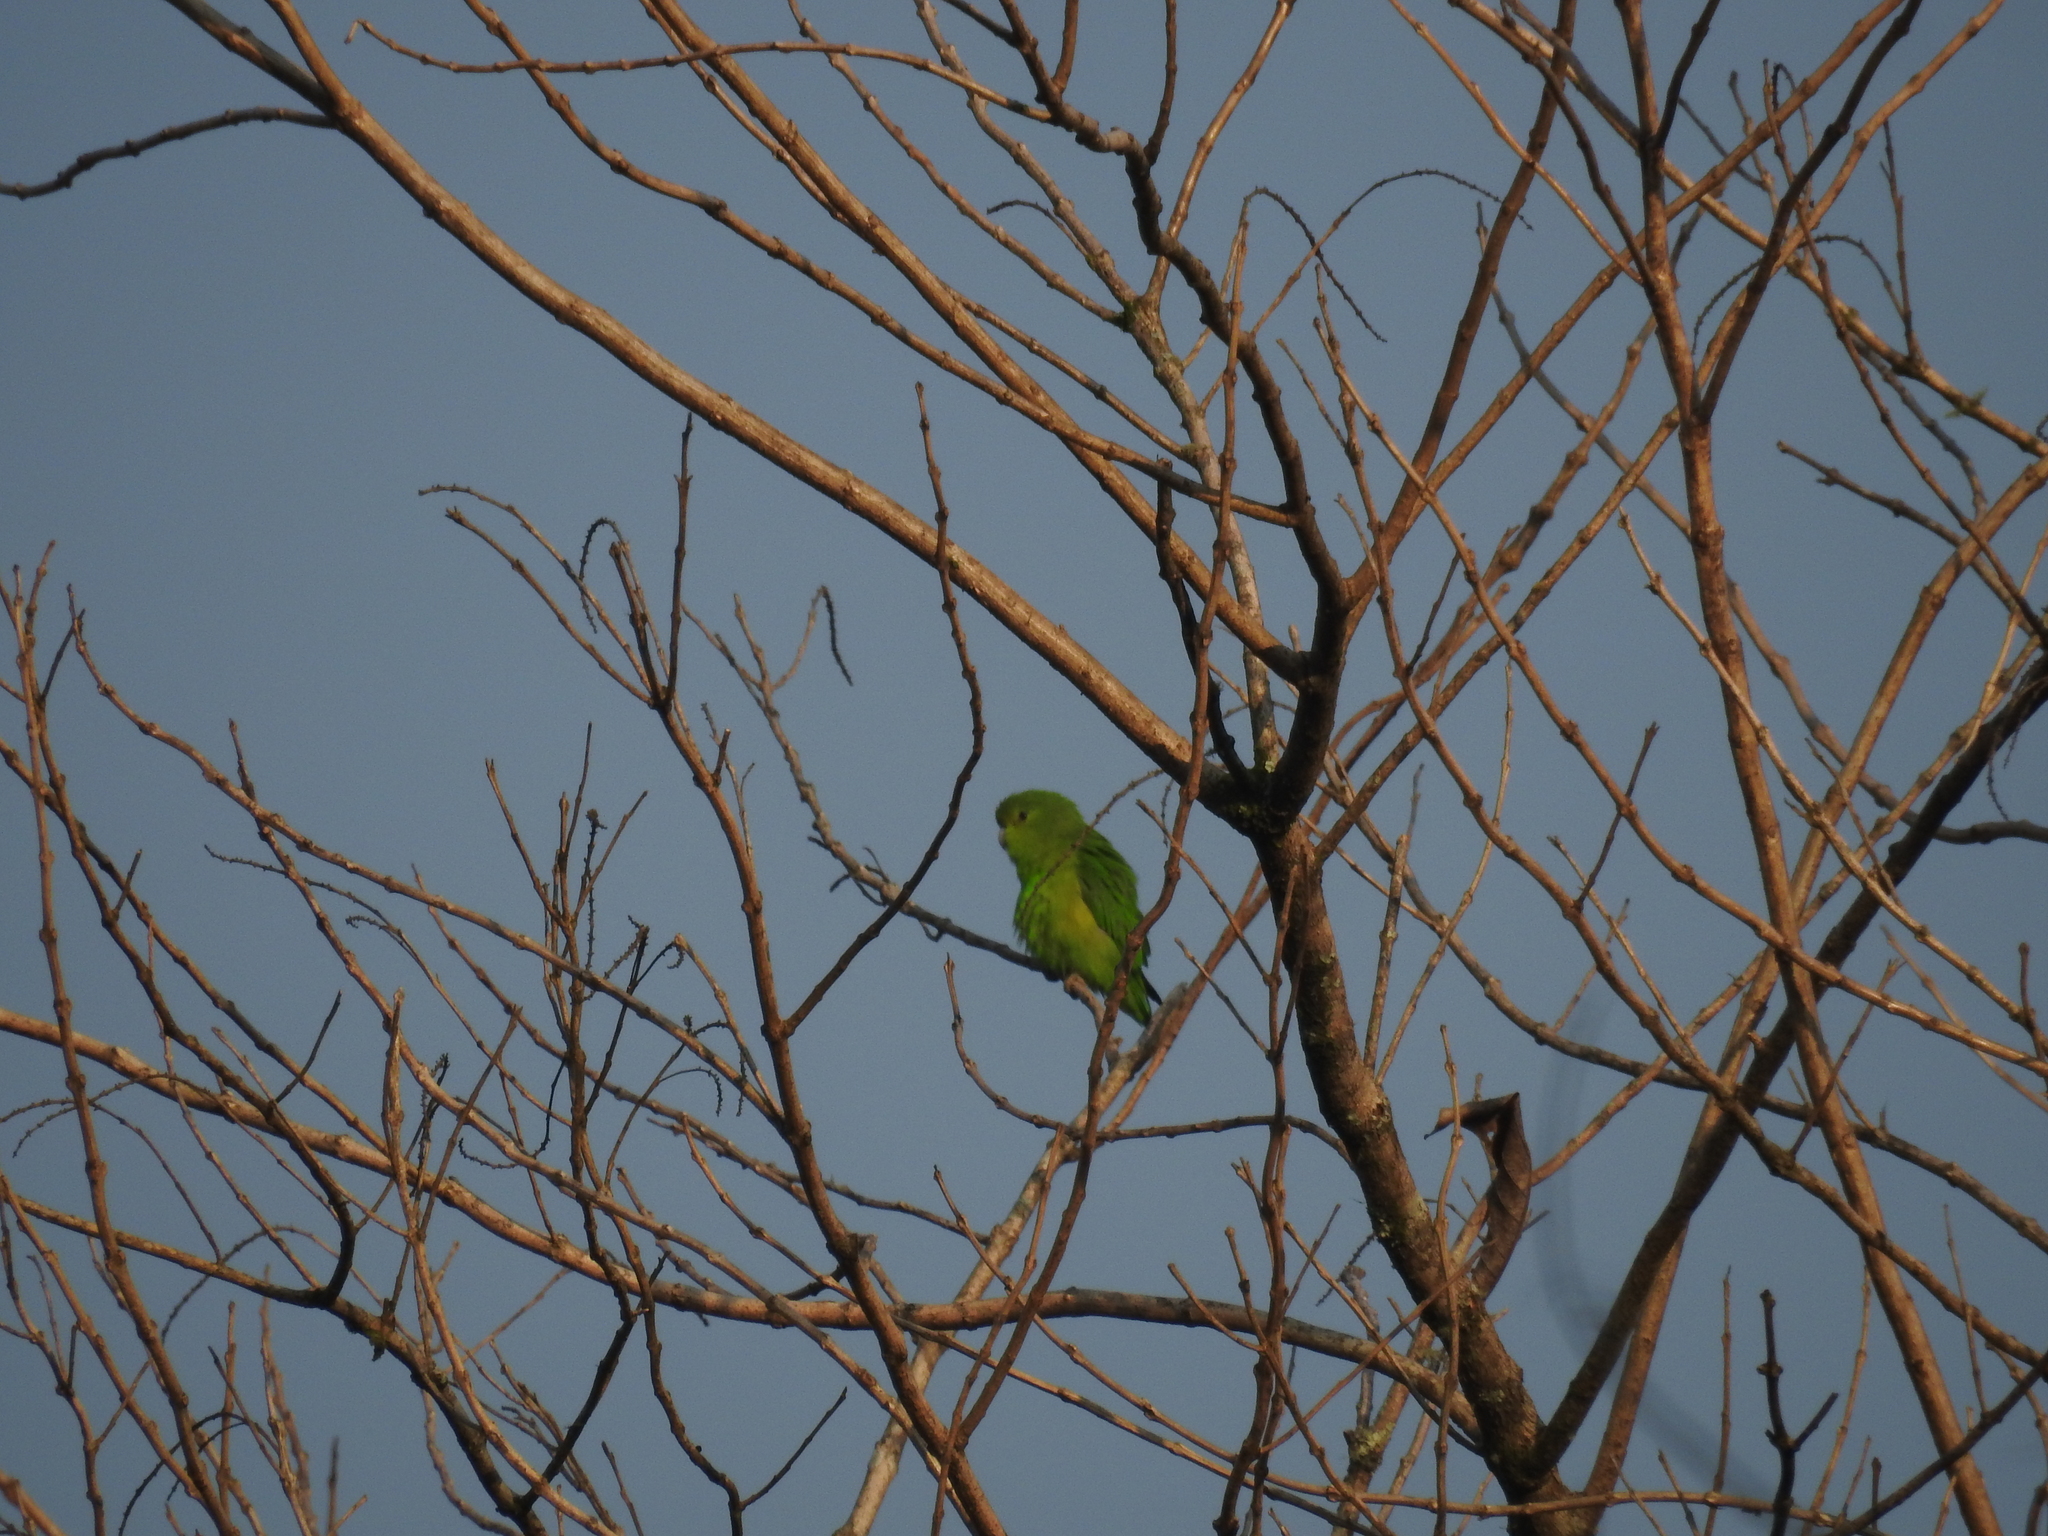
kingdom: Animalia
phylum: Chordata
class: Aves
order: Psittaciformes
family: Psittacidae
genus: Forpus
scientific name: Forpus xanthopterygius
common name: Blue-winged parrotlet
